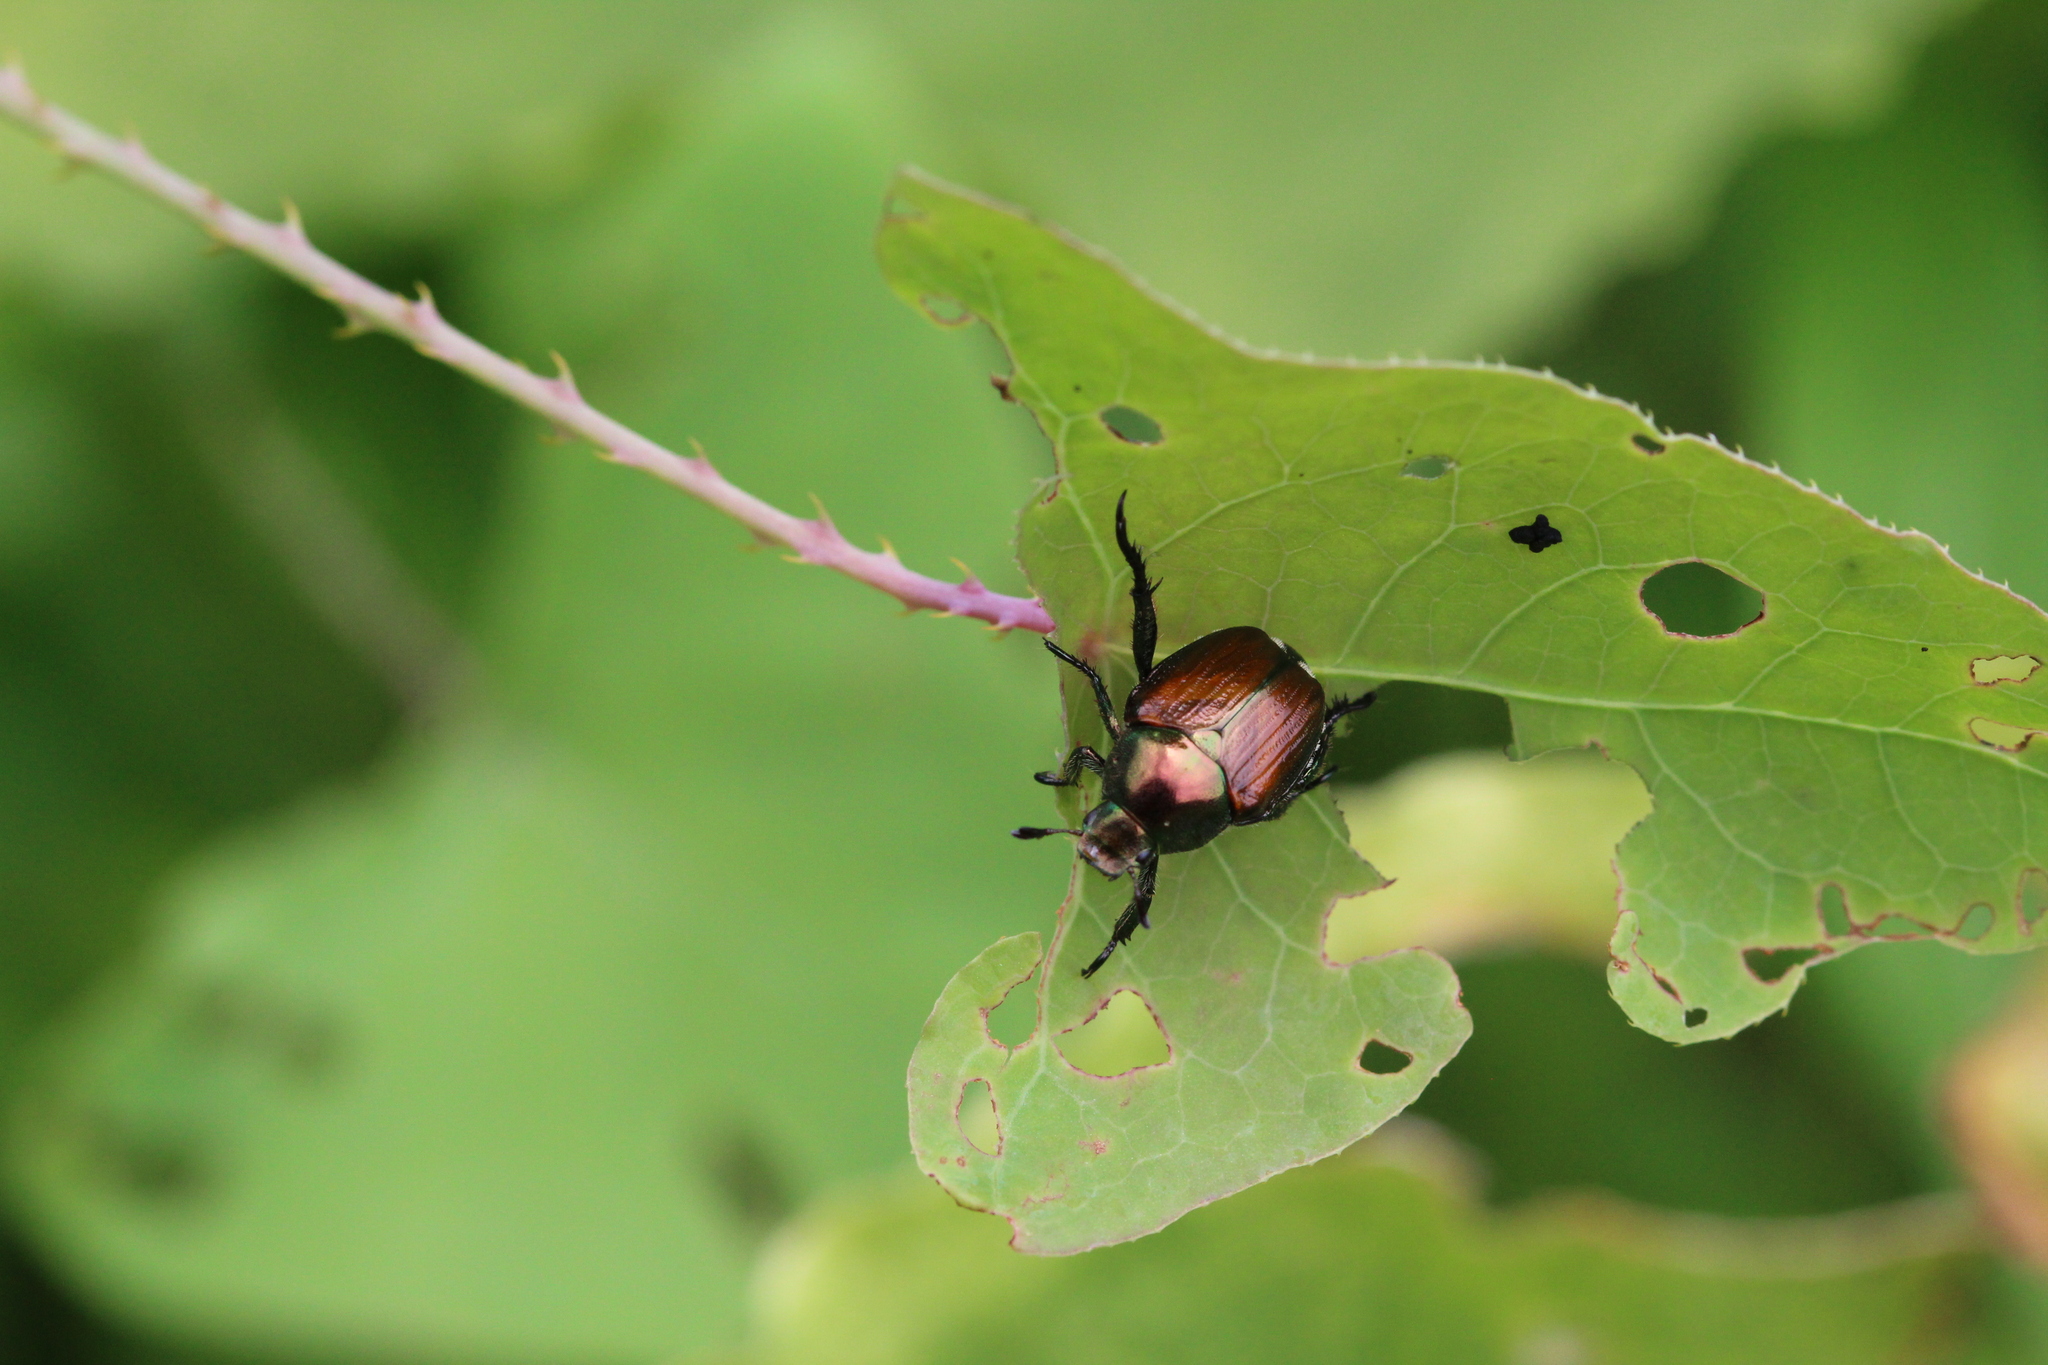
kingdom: Animalia
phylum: Arthropoda
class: Insecta
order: Coleoptera
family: Scarabaeidae
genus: Popillia
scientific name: Popillia japonica
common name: Japanese beetle
